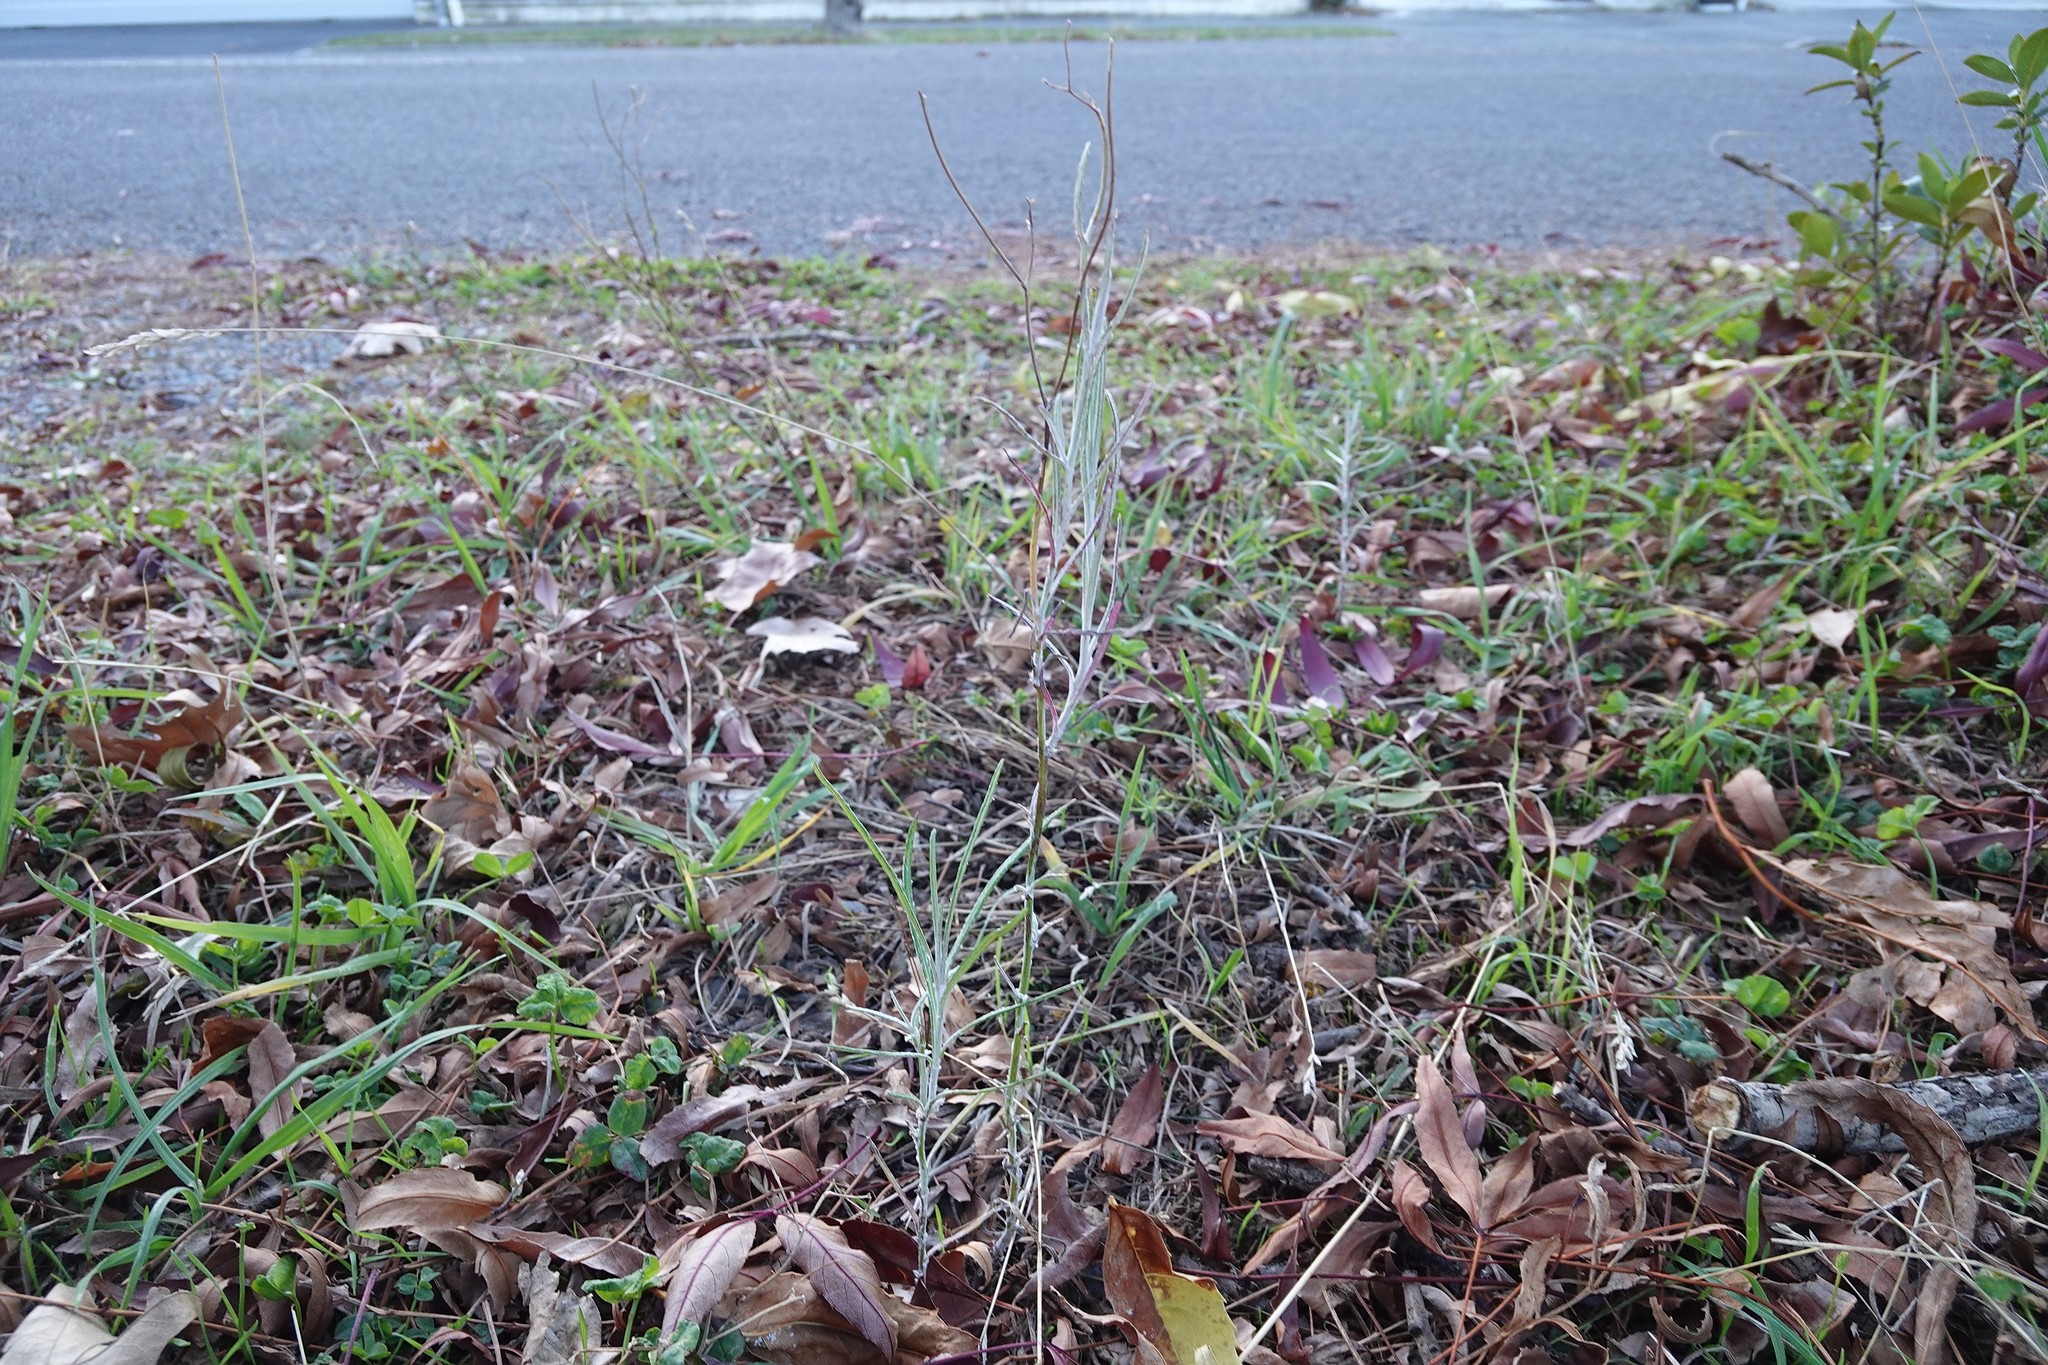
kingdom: Plantae
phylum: Tracheophyta
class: Magnoliopsida
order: Asterales
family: Asteraceae
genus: Senecio
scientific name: Senecio quadridentatus
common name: Cotton fireweed
